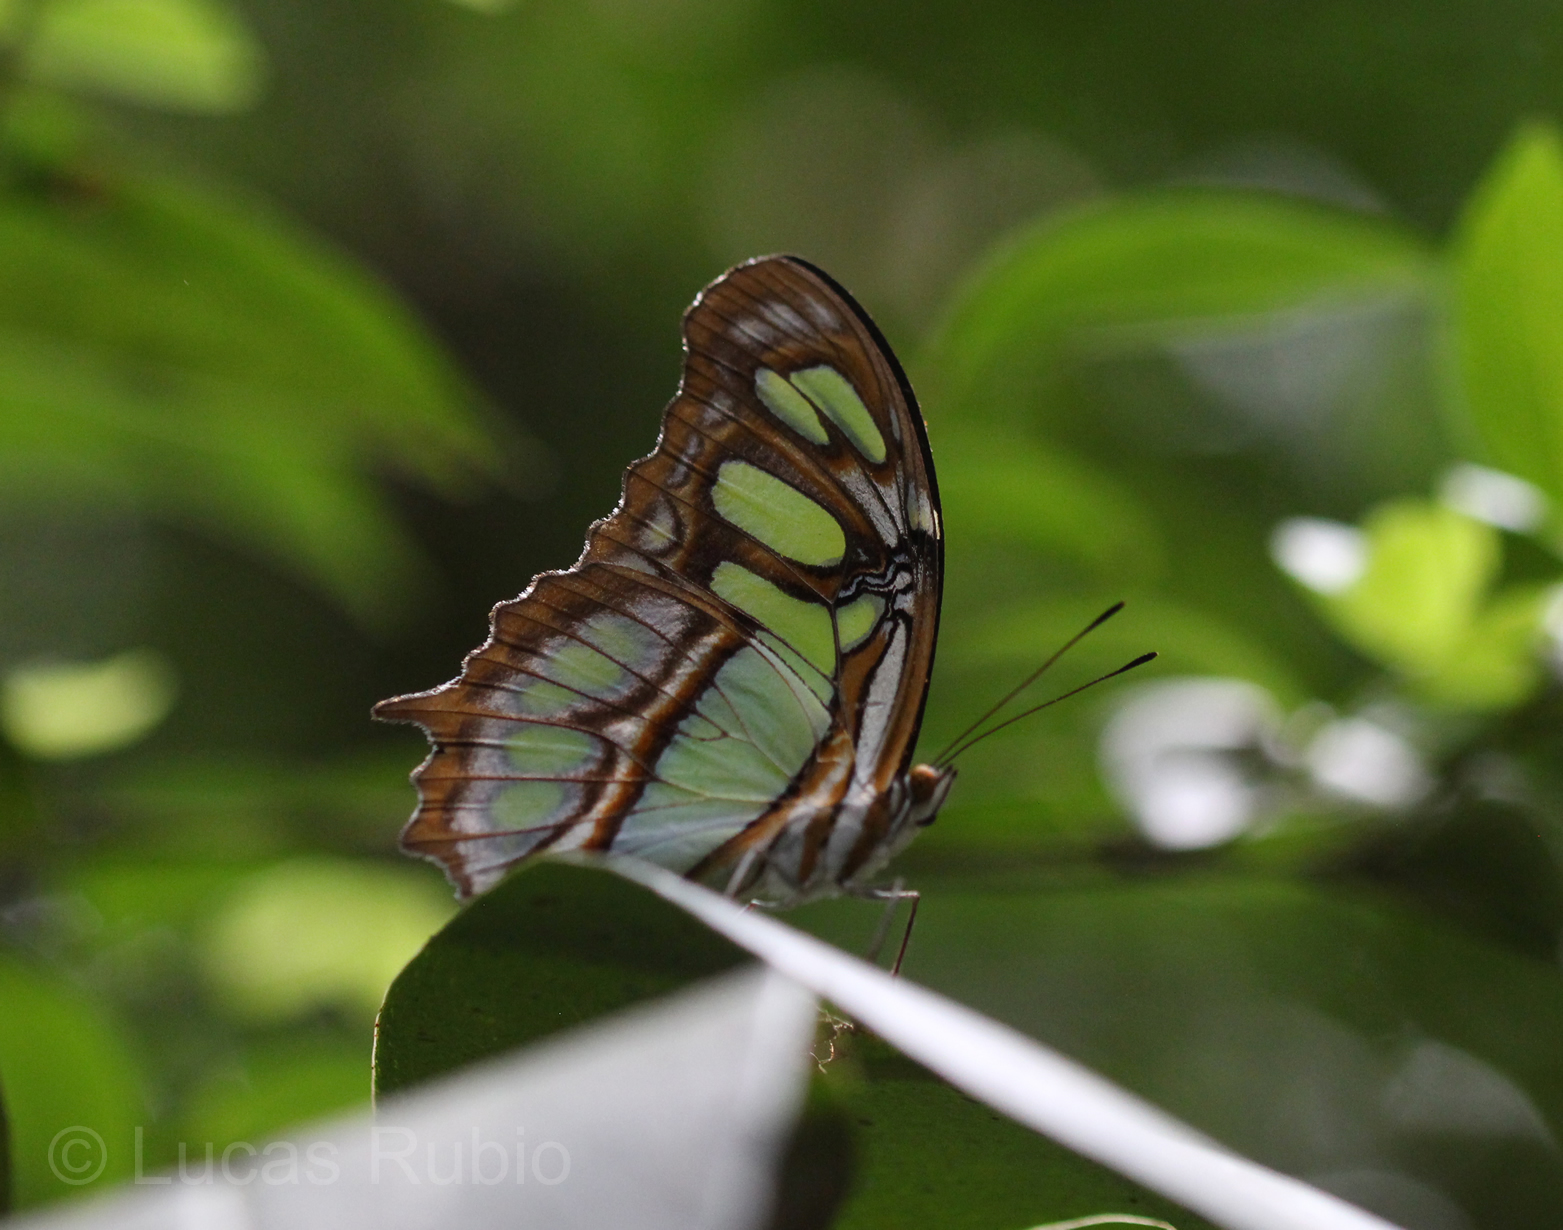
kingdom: Animalia
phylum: Arthropoda
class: Insecta
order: Lepidoptera
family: Nymphalidae
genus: Siproeta
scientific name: Siproeta stelenes
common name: Malachite
